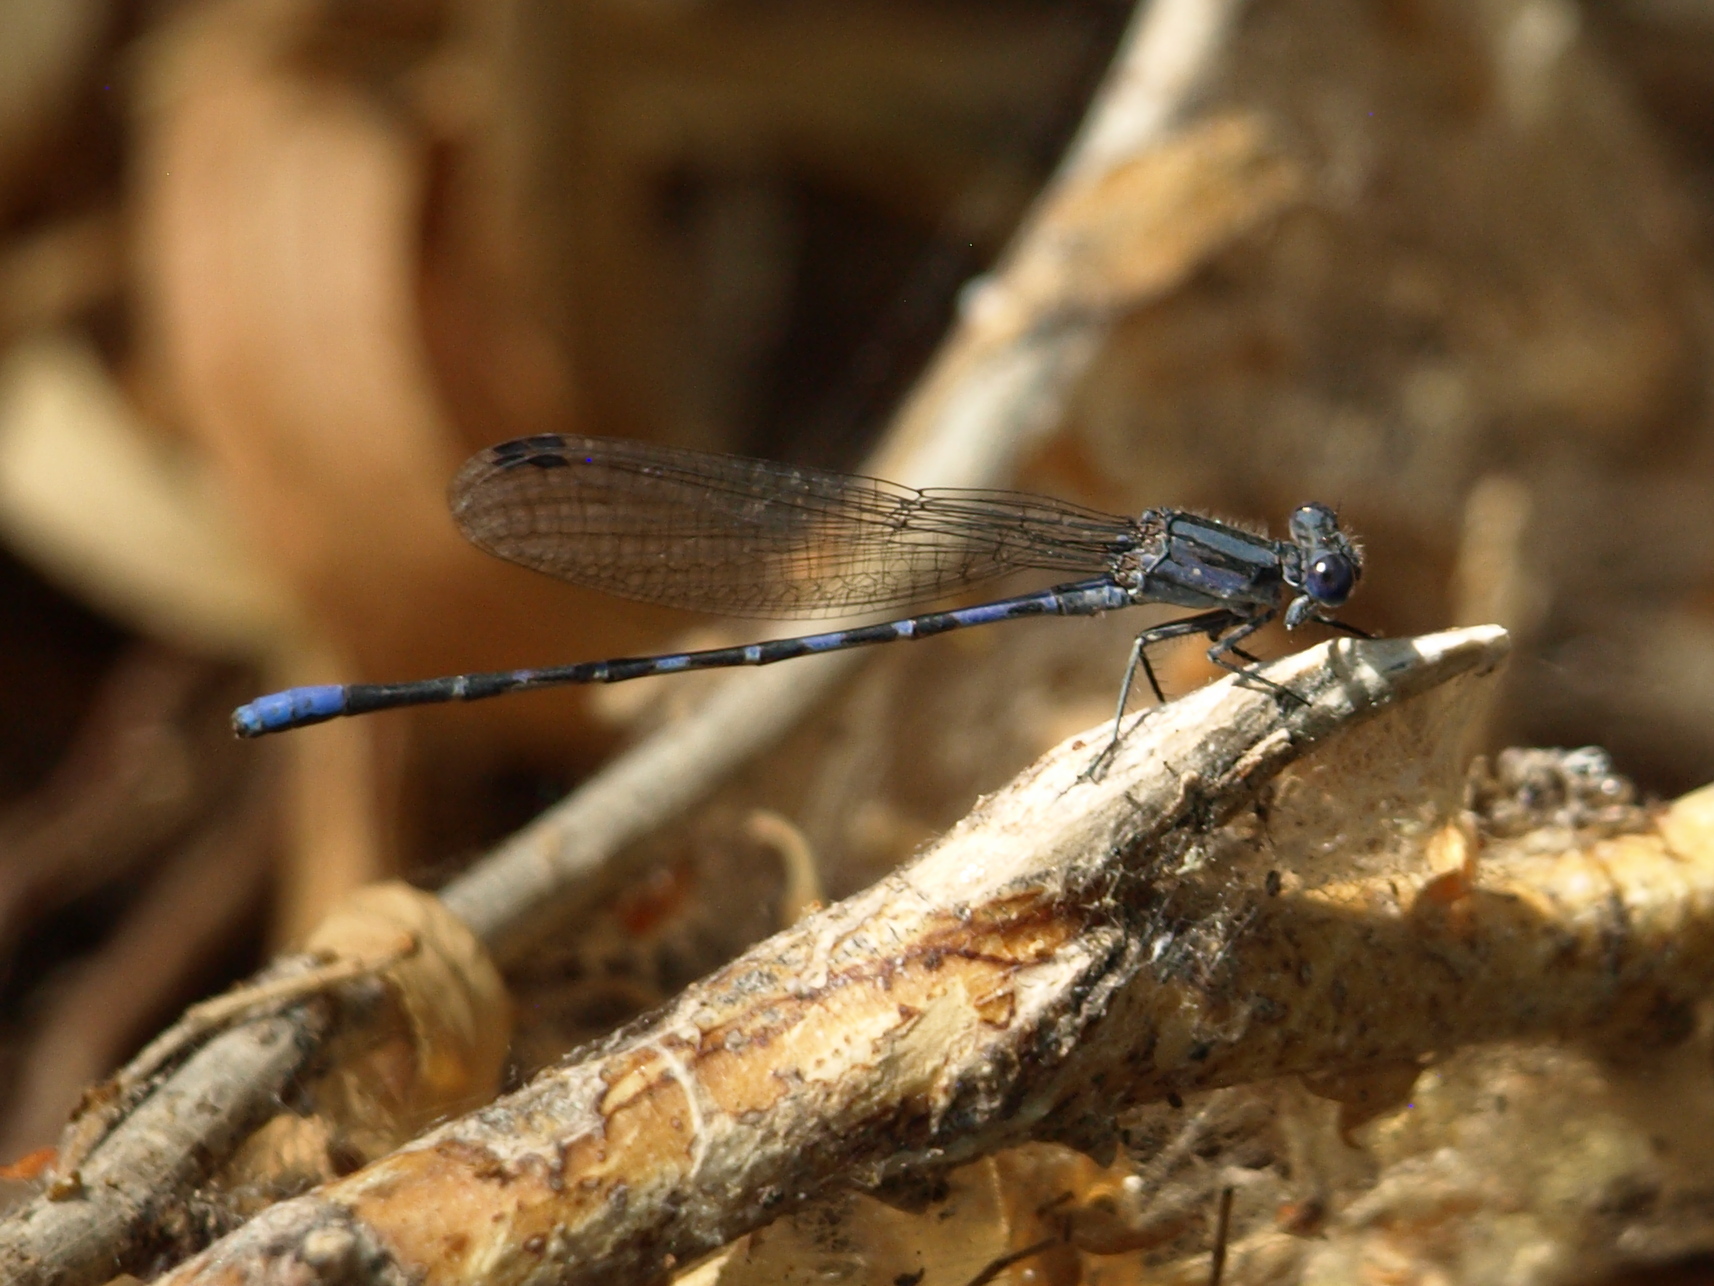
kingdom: Animalia
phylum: Arthropoda
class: Insecta
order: Odonata
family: Coenagrionidae
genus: Argia
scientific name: Argia immunda
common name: Kiowa dancer
